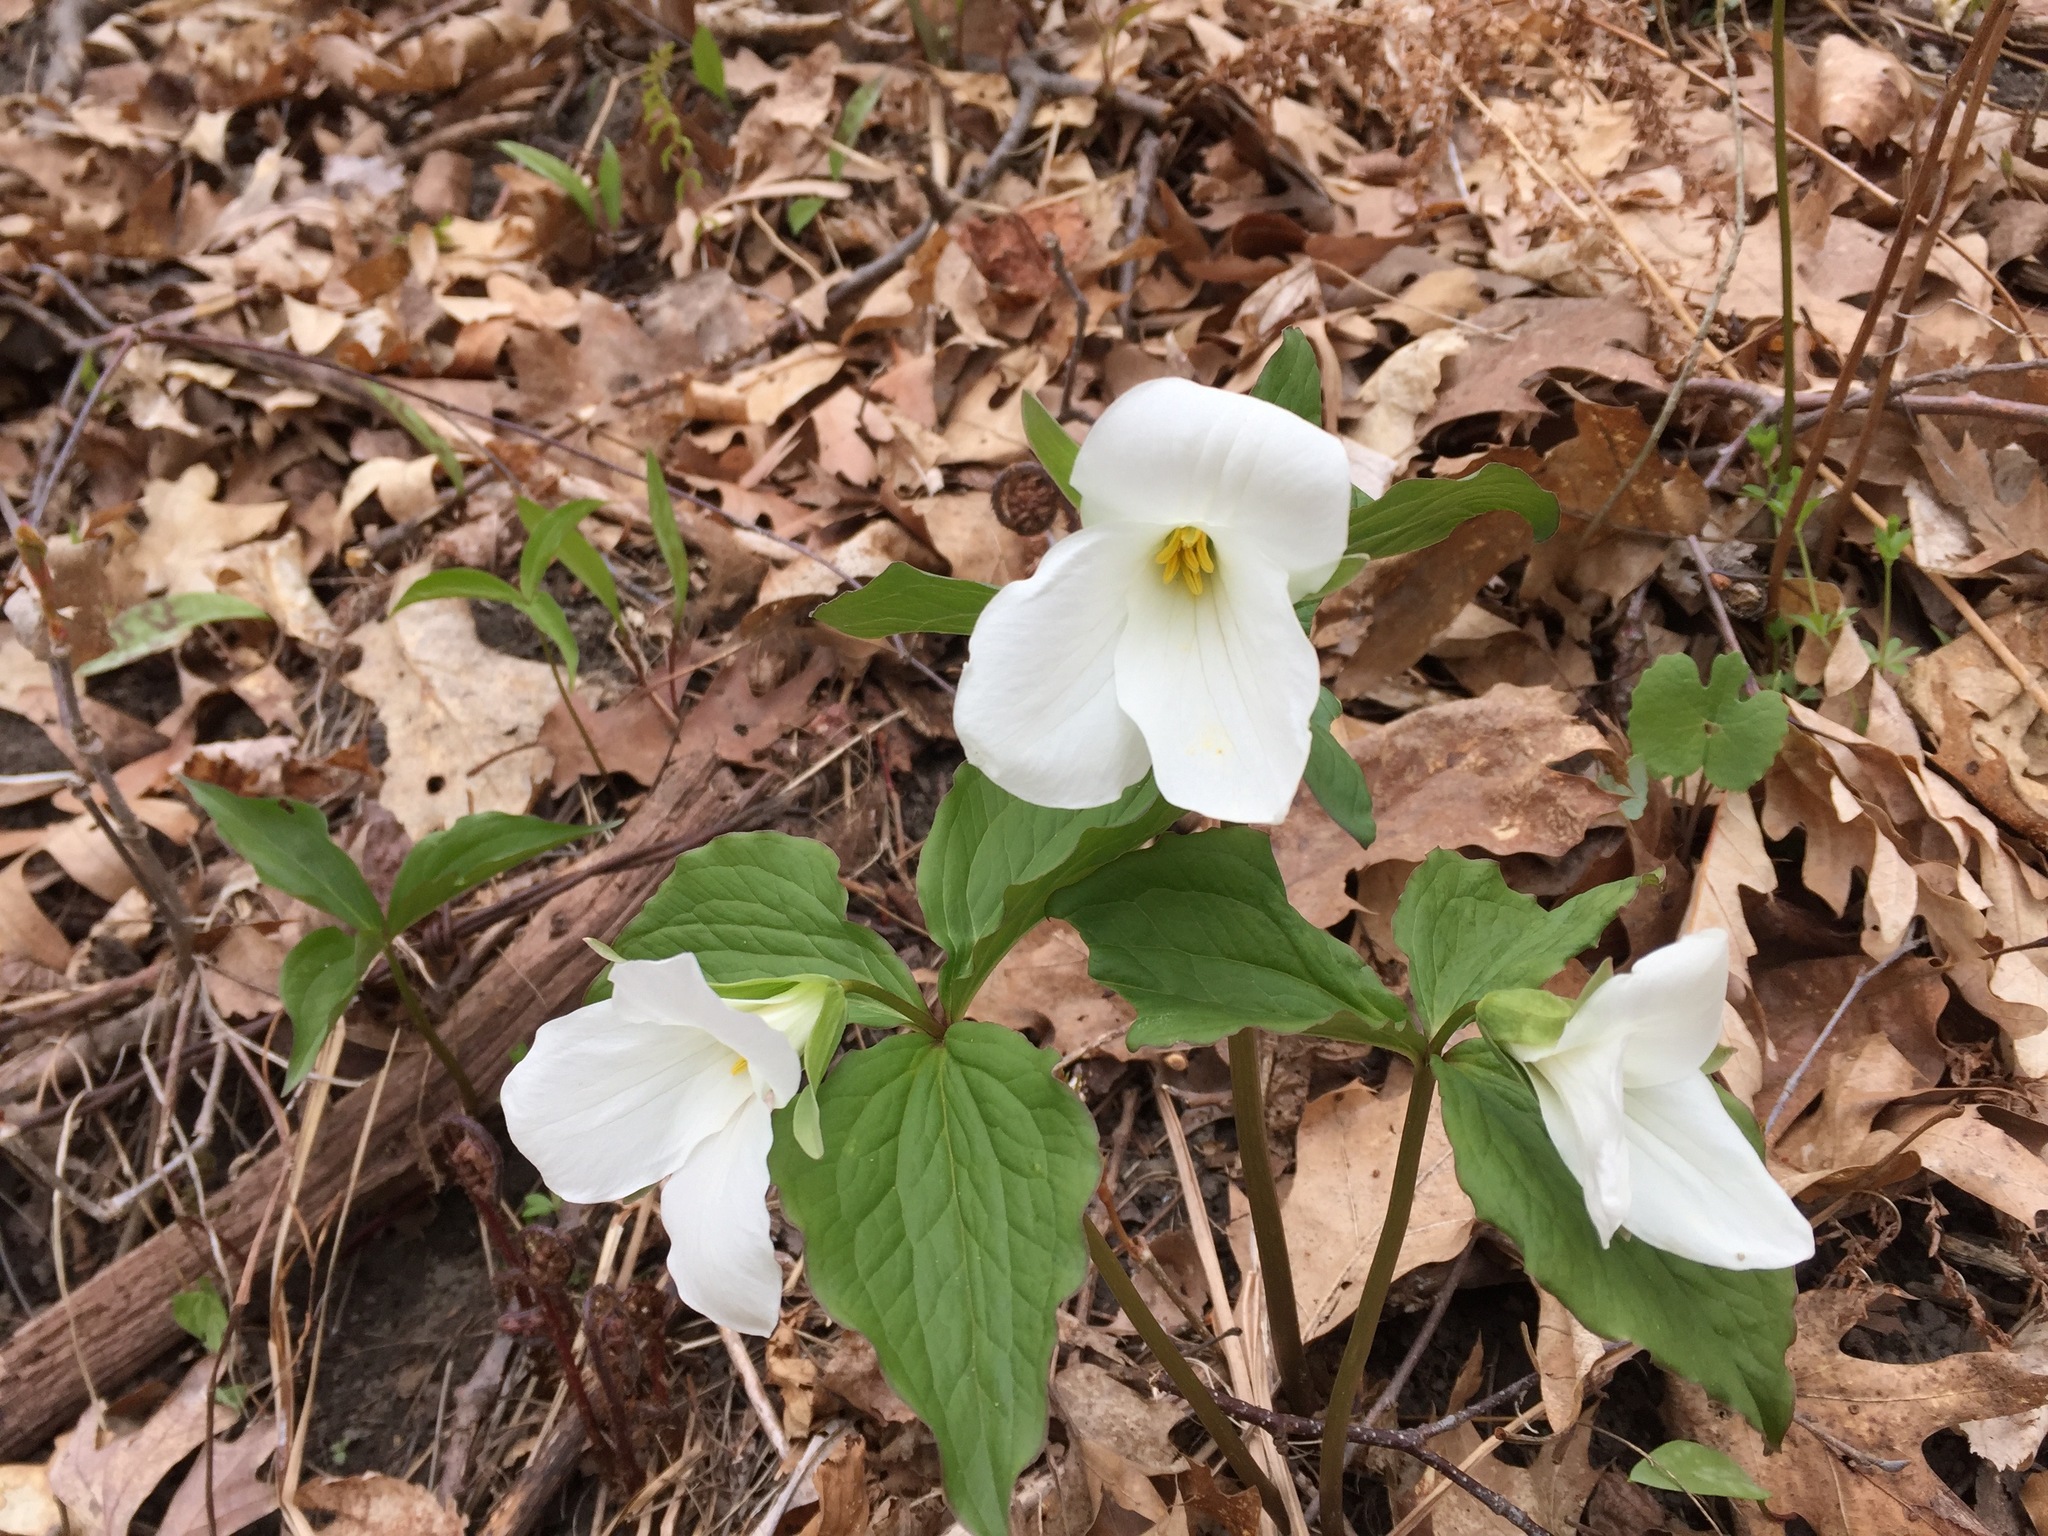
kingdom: Plantae
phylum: Tracheophyta
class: Liliopsida
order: Liliales
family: Melanthiaceae
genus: Trillium
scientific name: Trillium grandiflorum
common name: Great white trillium
